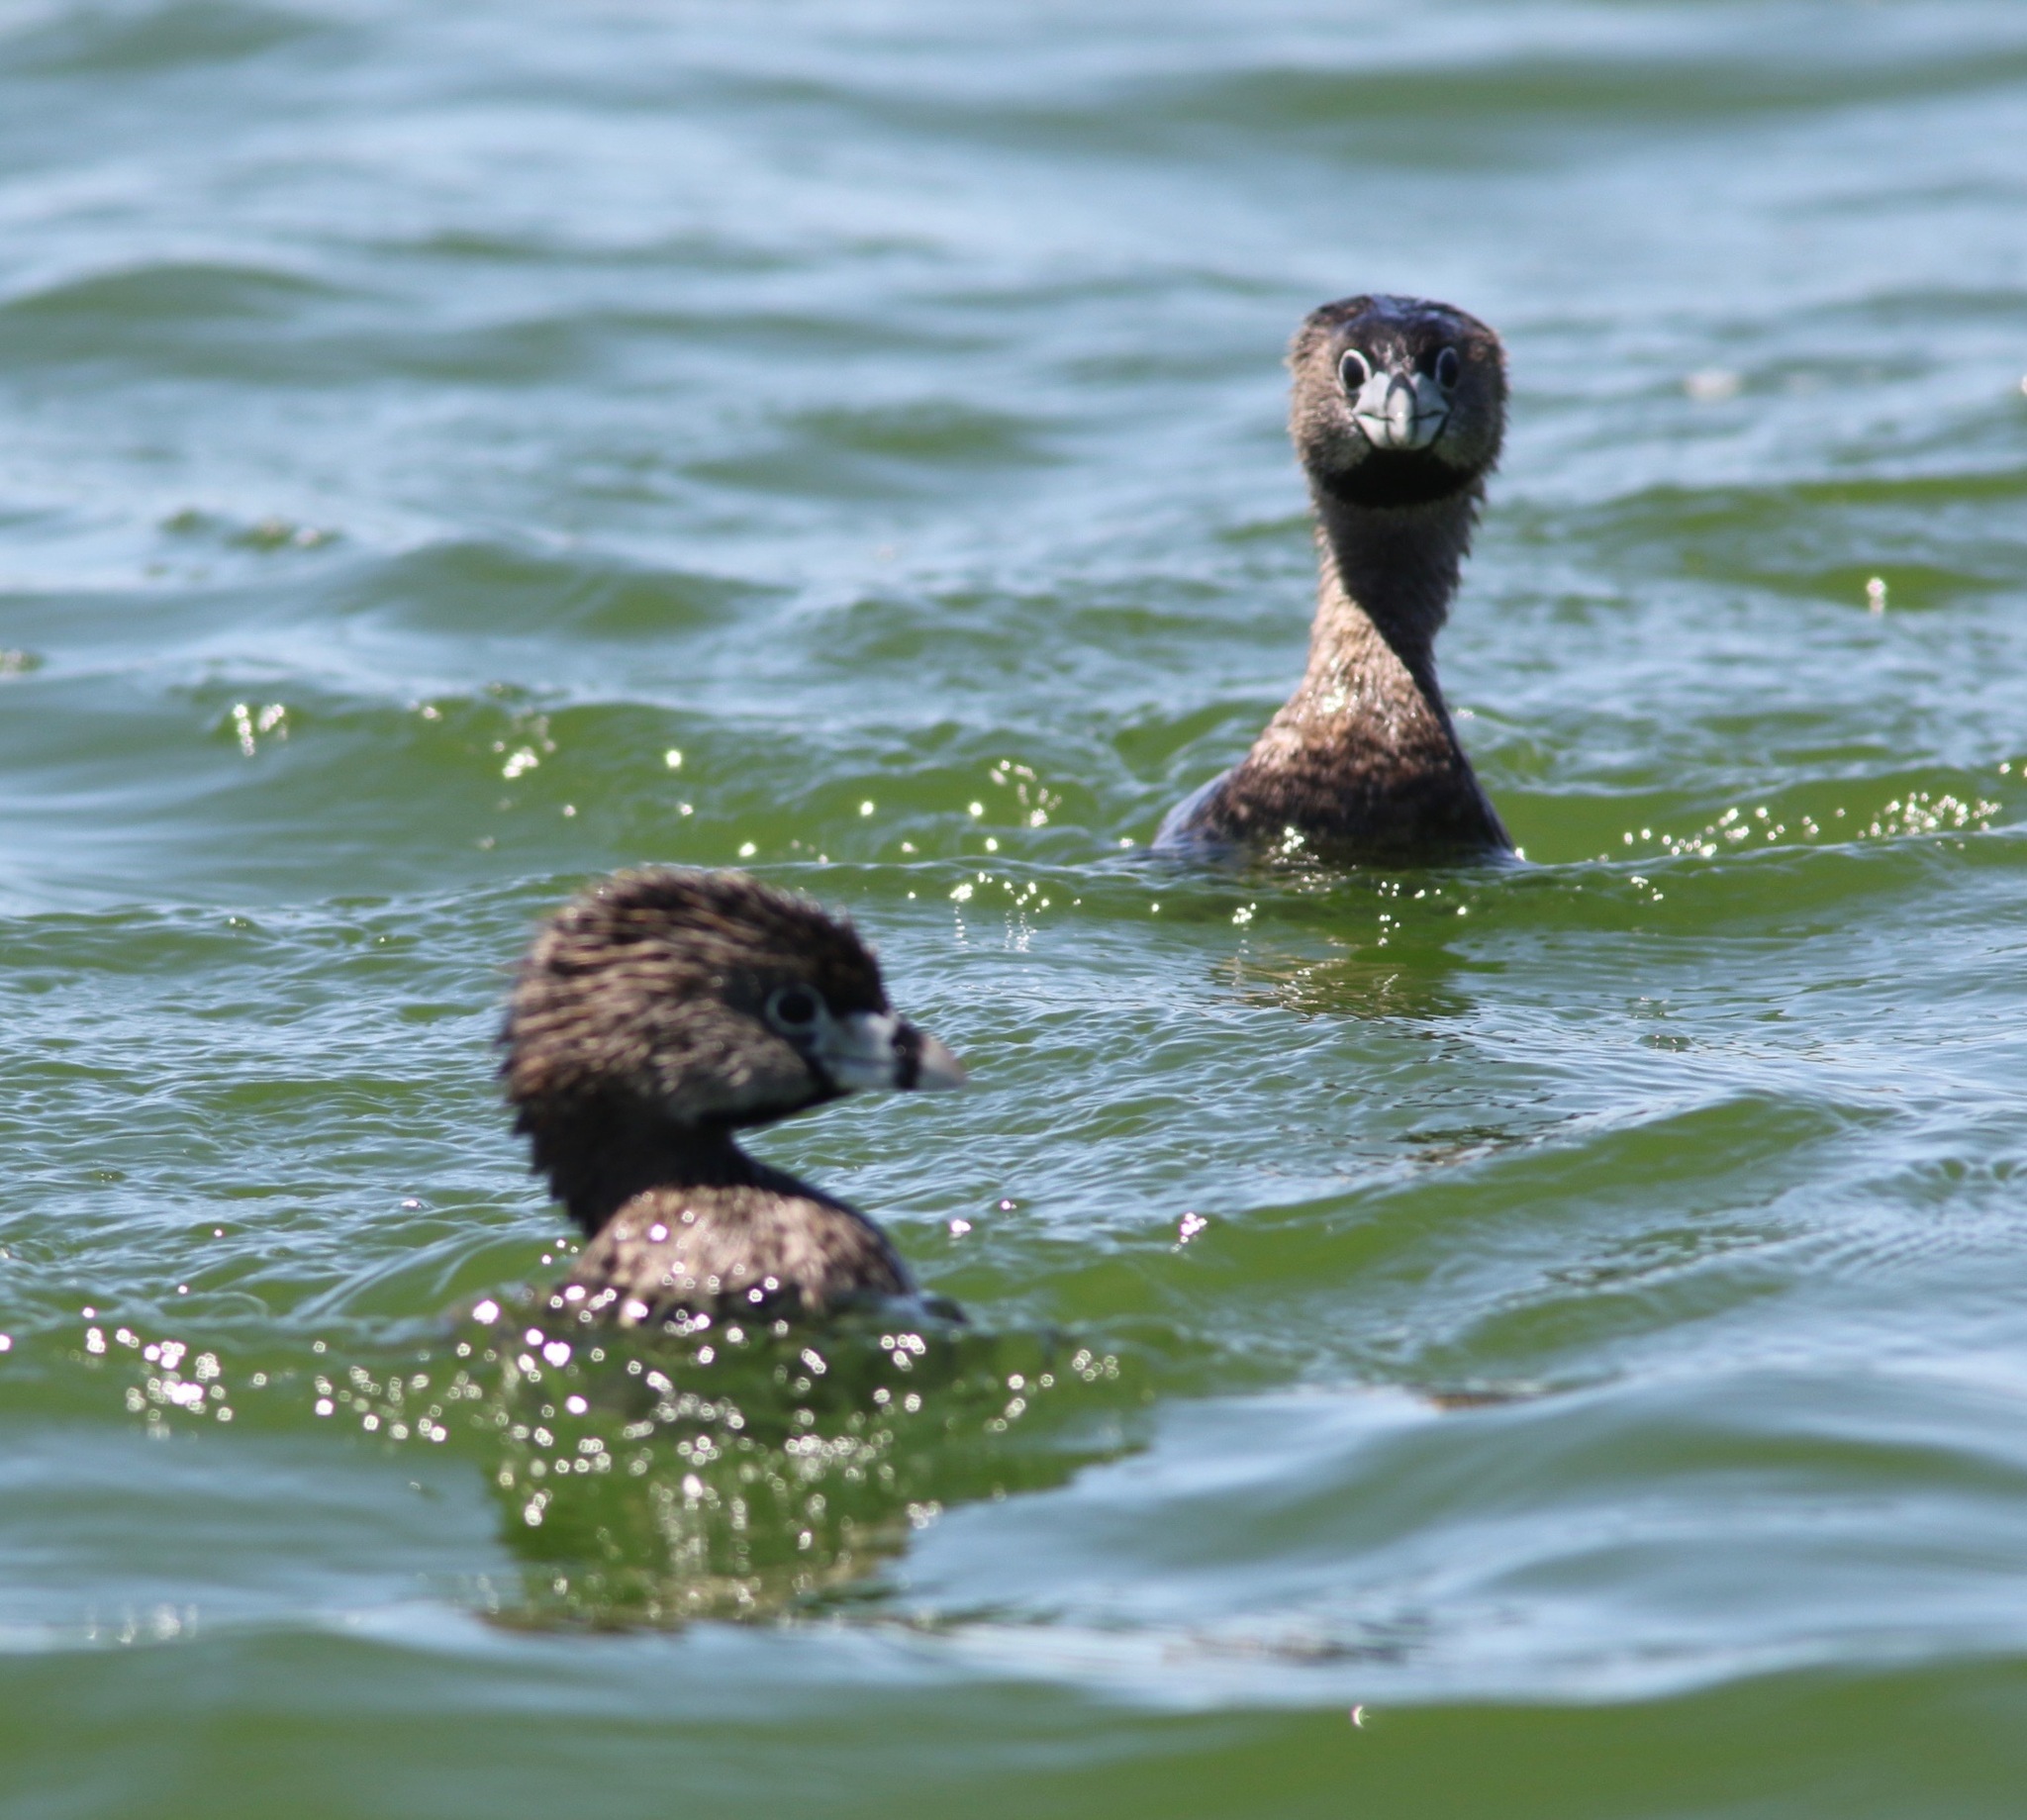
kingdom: Animalia
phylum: Chordata
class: Aves
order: Podicipediformes
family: Podicipedidae
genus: Podilymbus
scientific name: Podilymbus podiceps
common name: Pied-billed grebe
